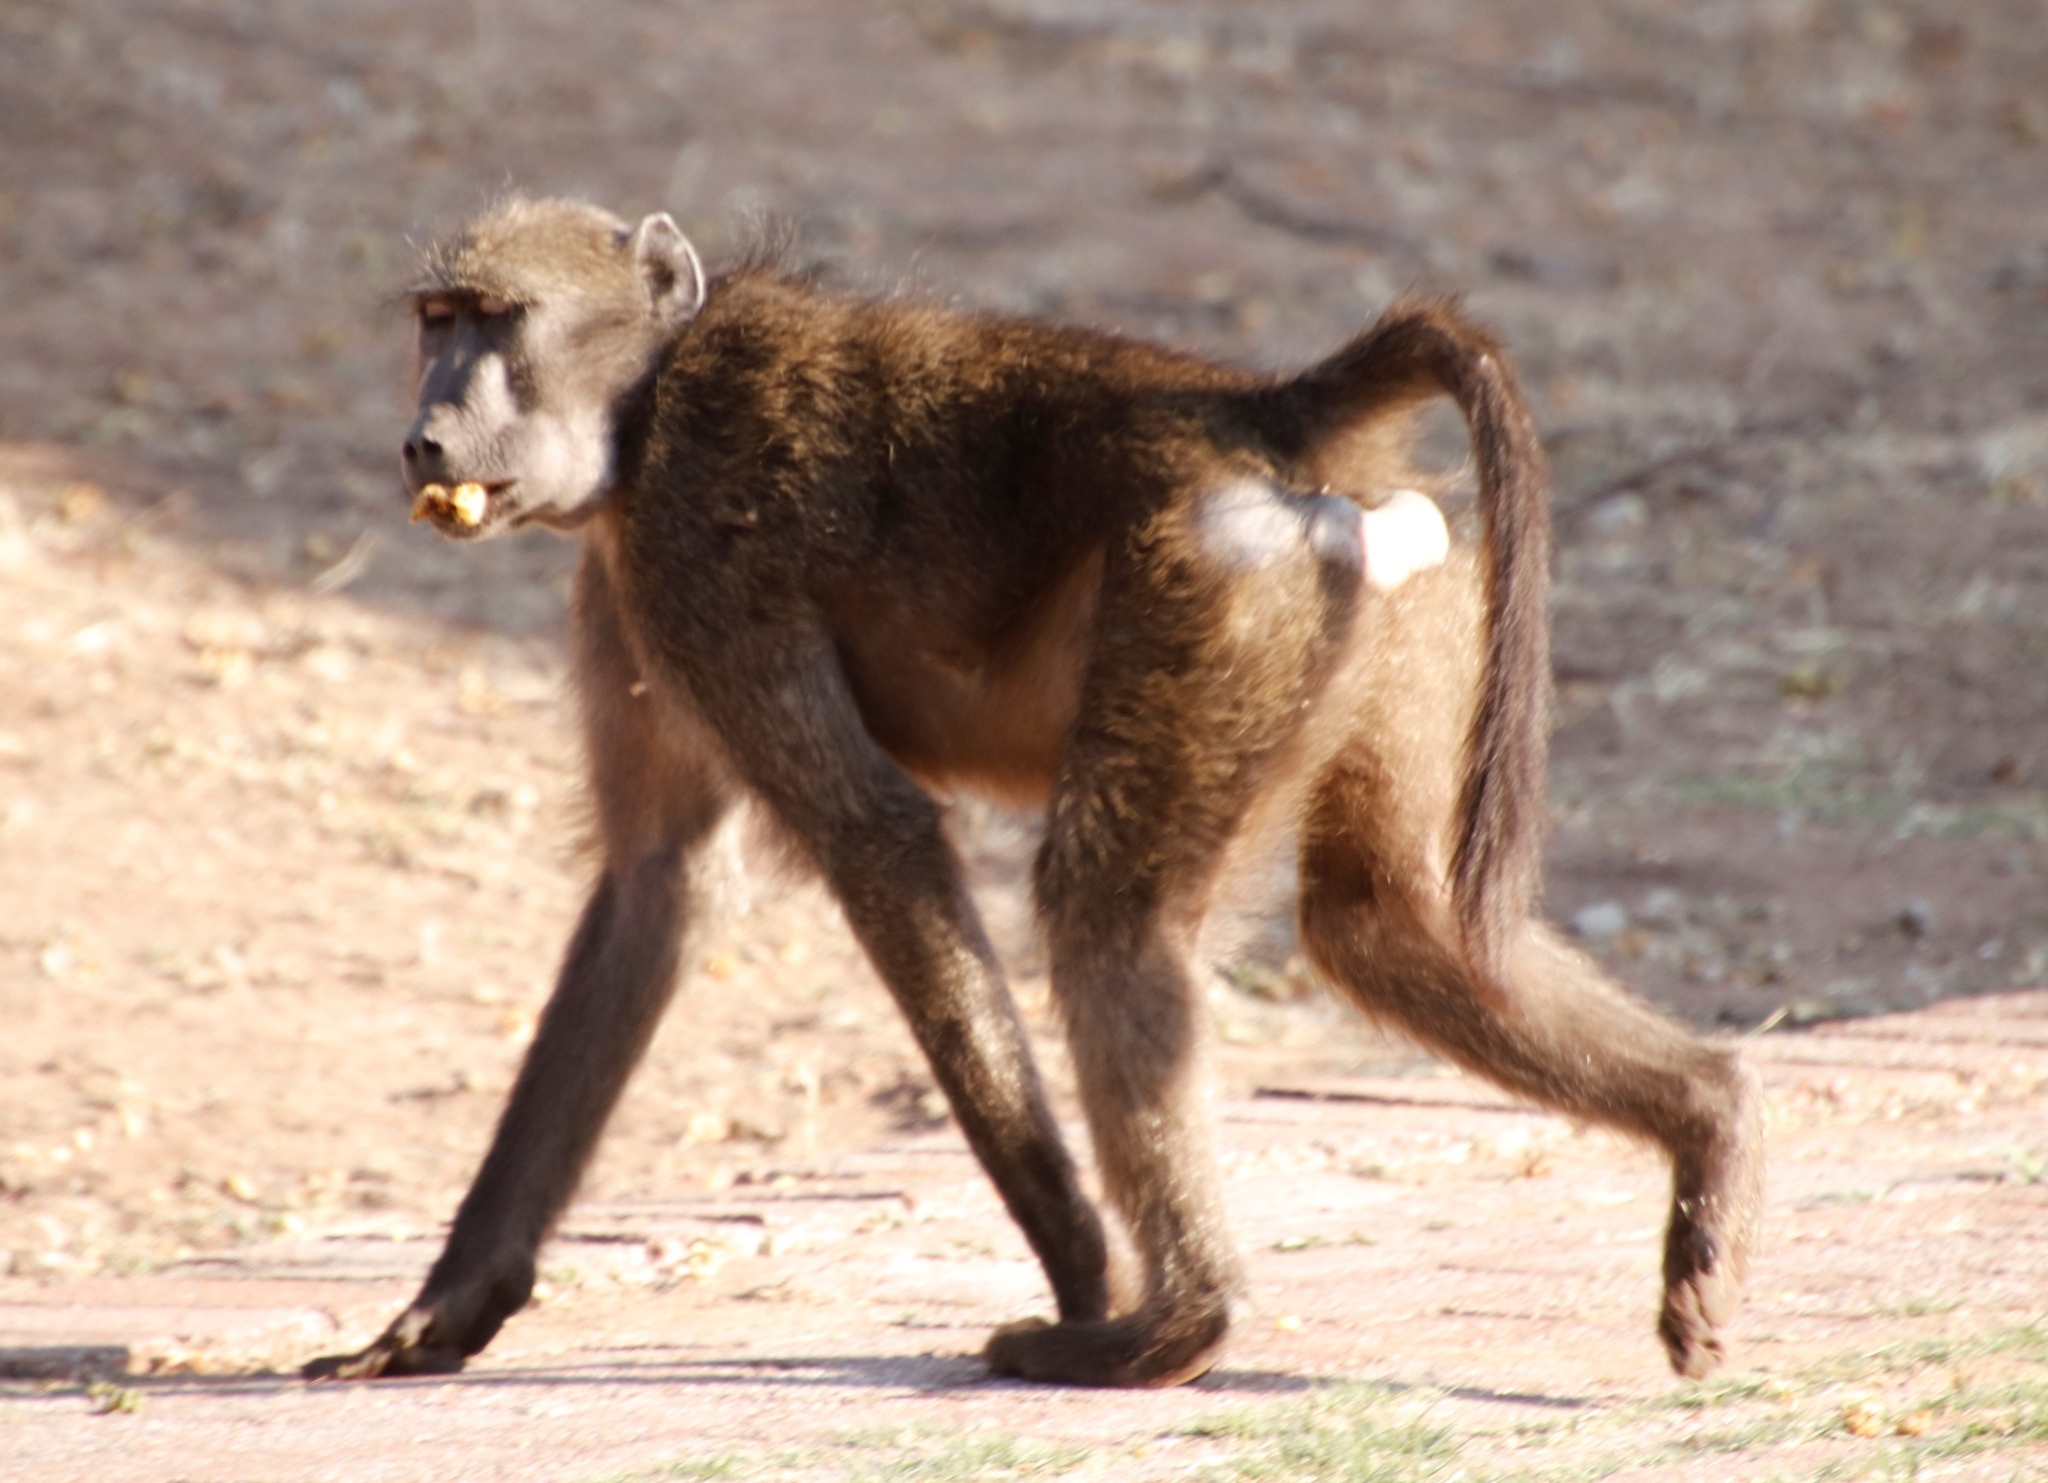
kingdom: Animalia
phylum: Chordata
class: Mammalia
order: Primates
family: Cercopithecidae
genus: Papio
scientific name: Papio ursinus
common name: Chacma baboon
